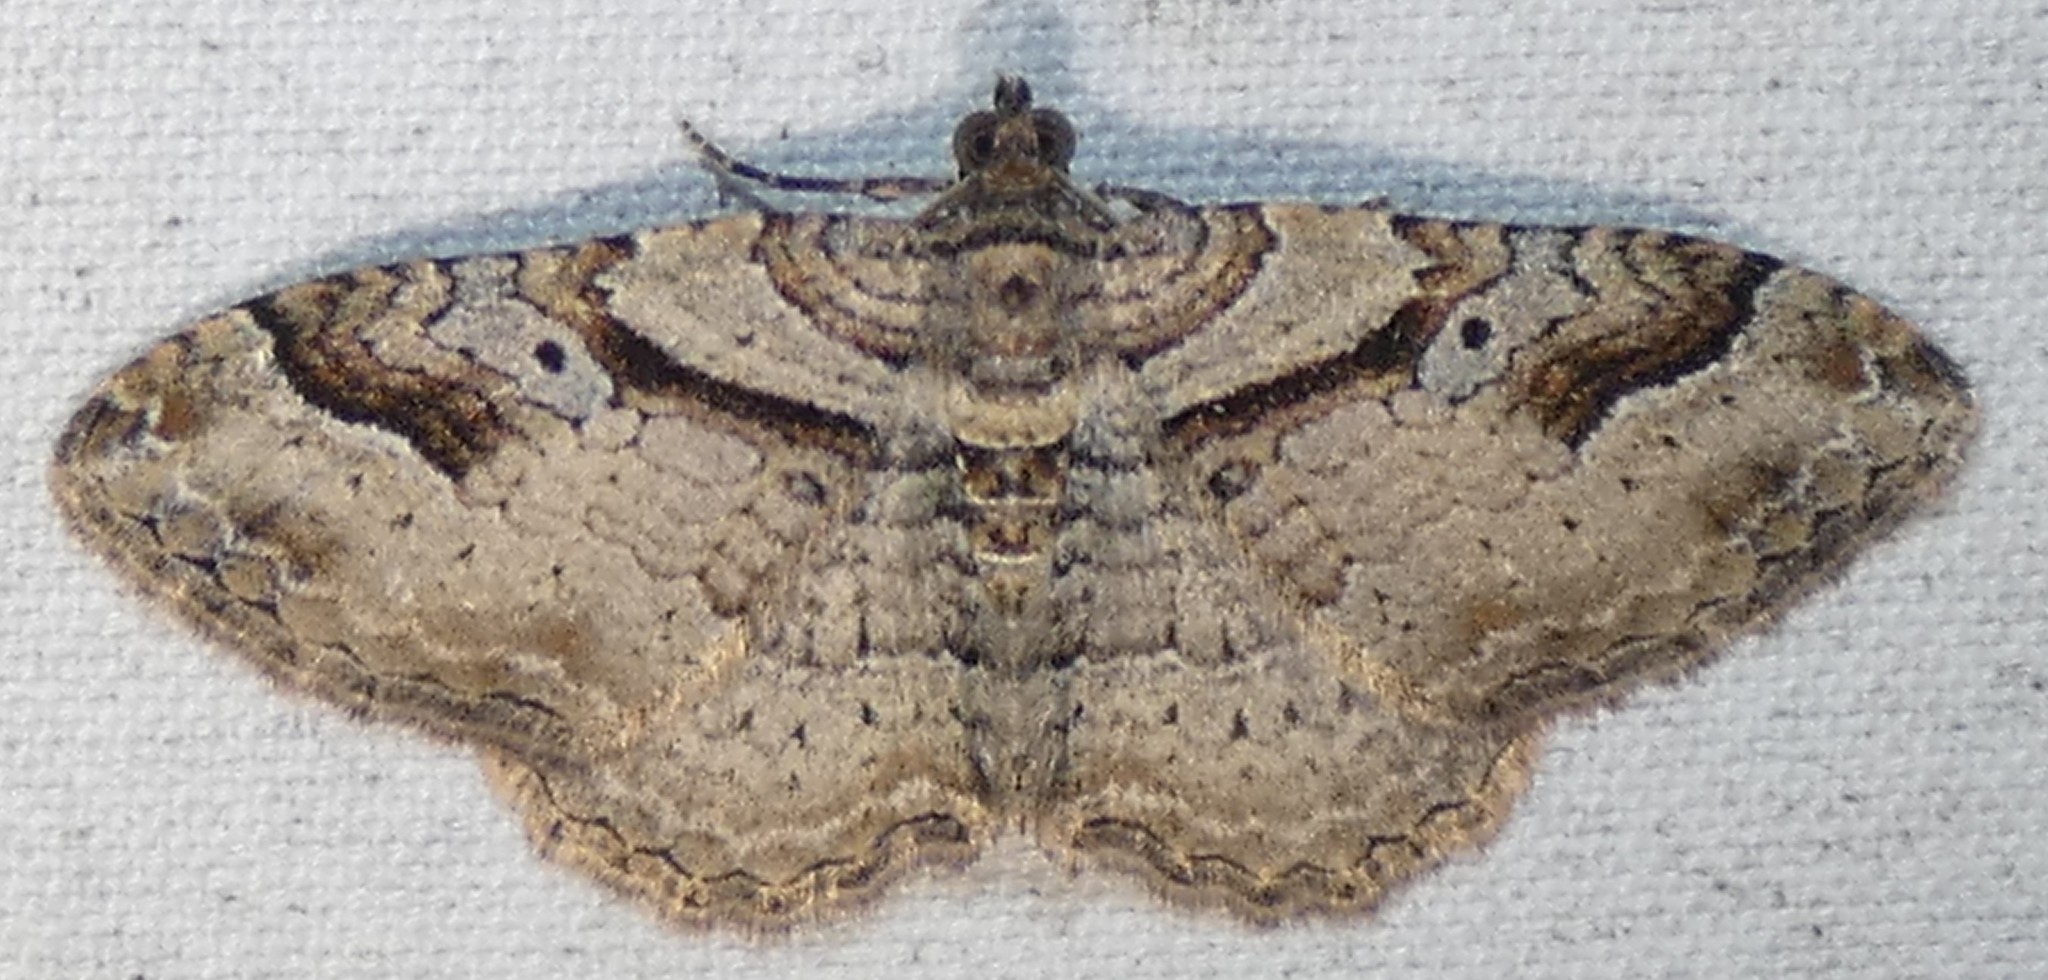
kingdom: Animalia
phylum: Arthropoda
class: Insecta
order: Lepidoptera
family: Geometridae
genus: Costaconvexa
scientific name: Costaconvexa centrostrigaria
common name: Bent-line carpet
